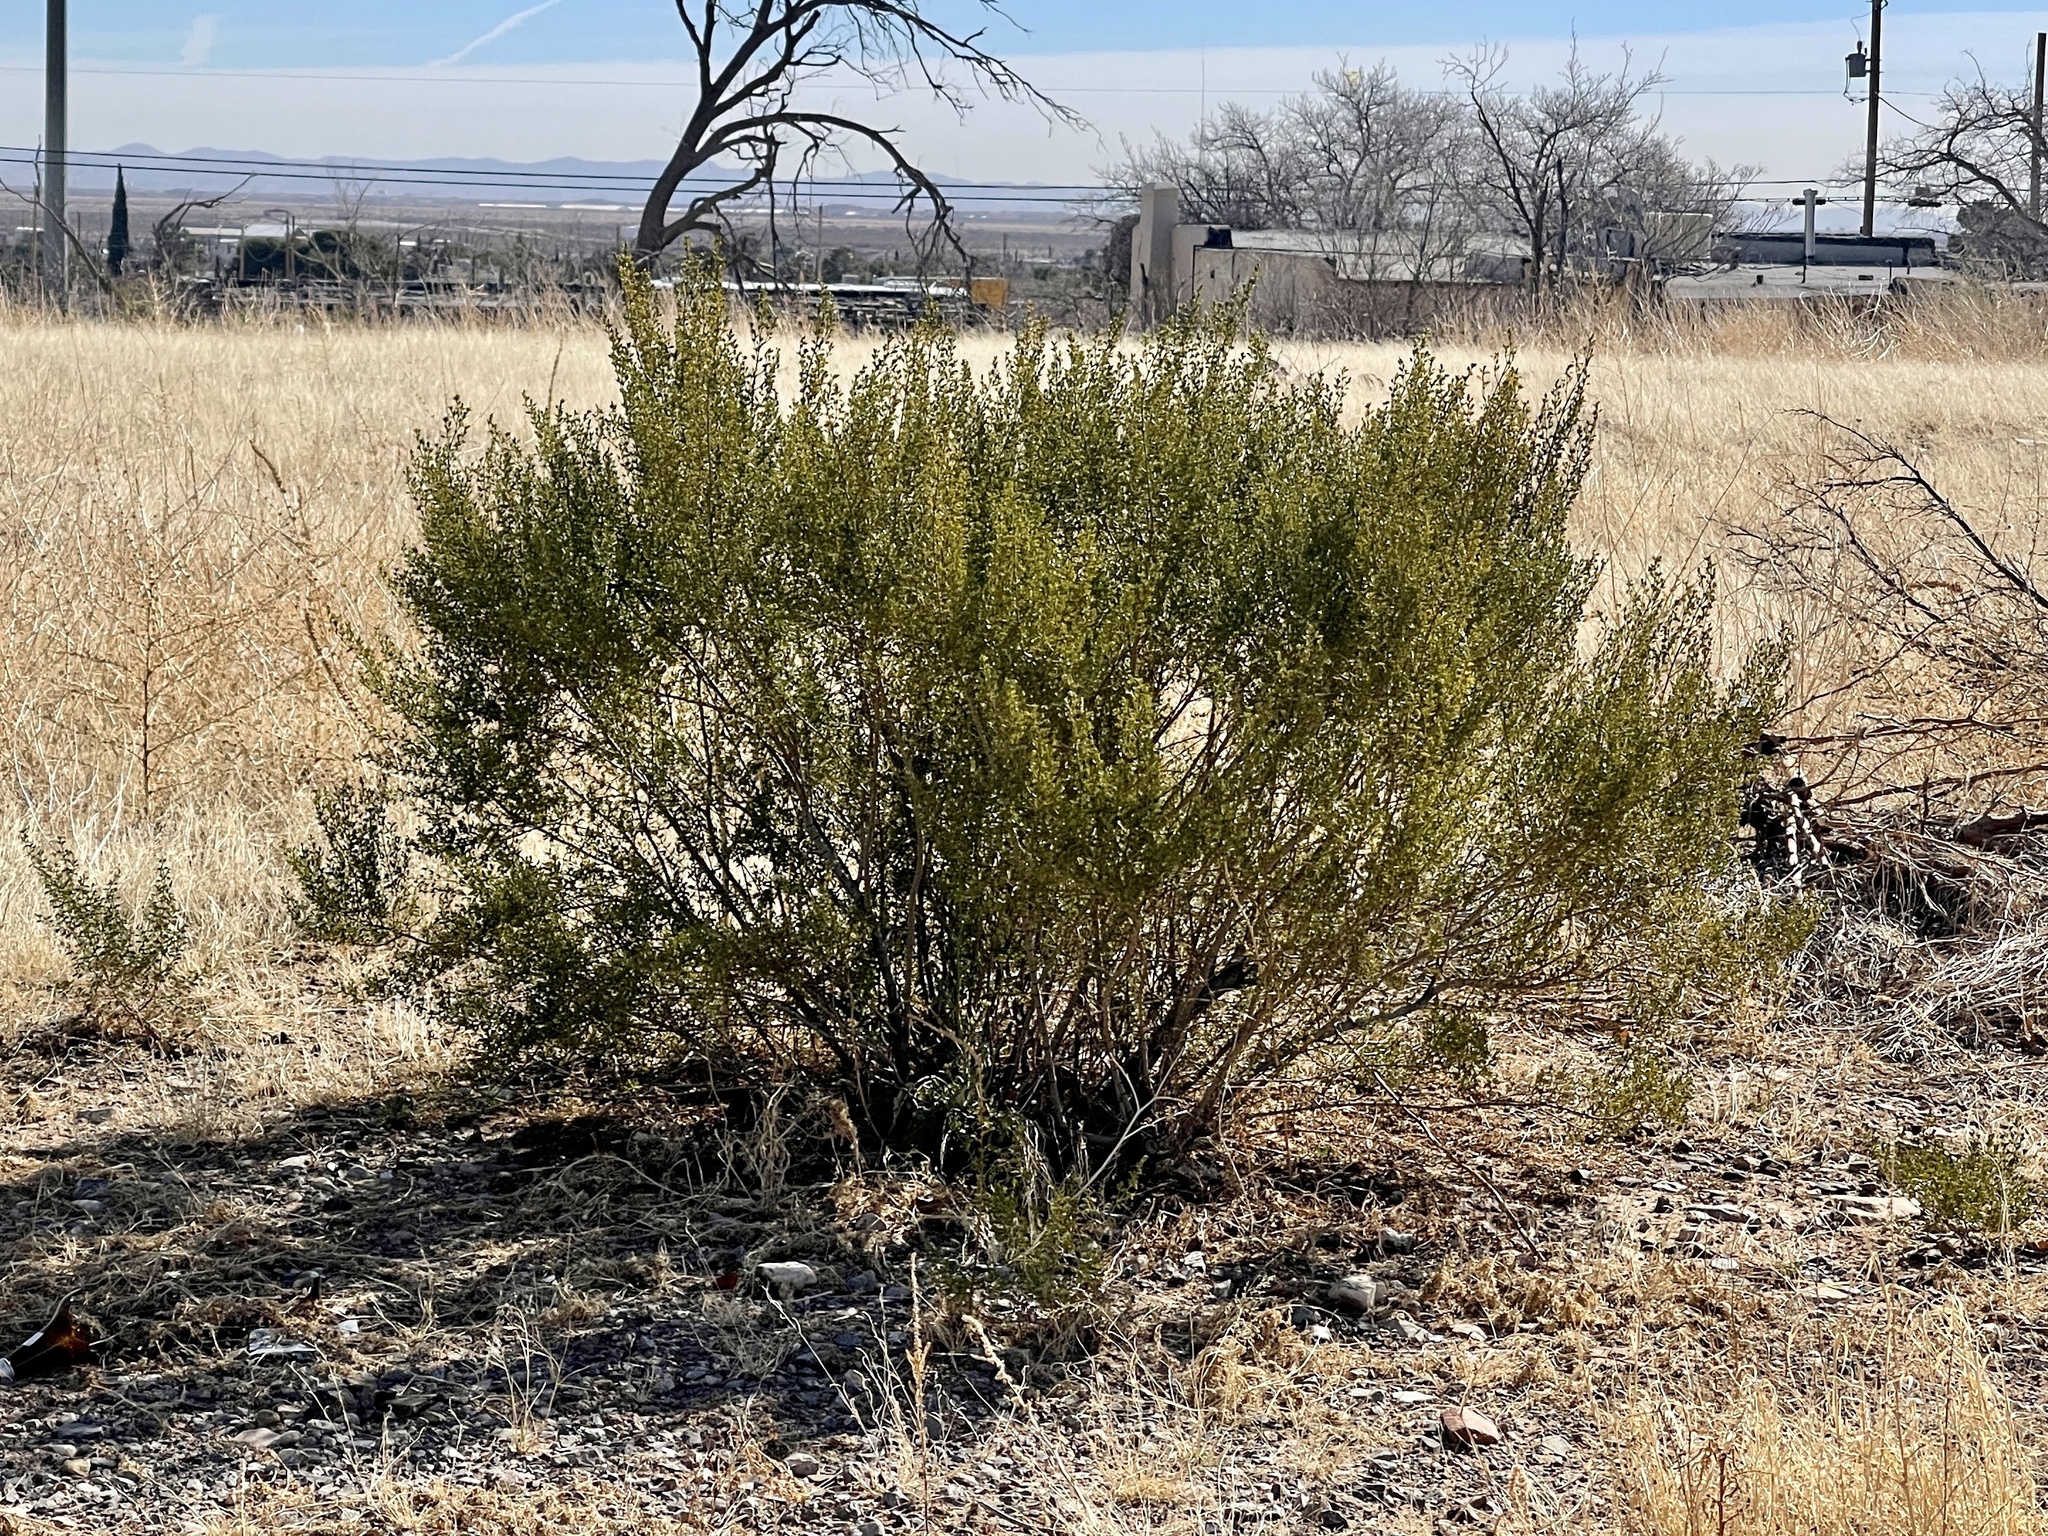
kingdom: Plantae
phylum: Tracheophyta
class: Magnoliopsida
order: Zygophyllales
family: Zygophyllaceae
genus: Larrea
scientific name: Larrea tridentata
